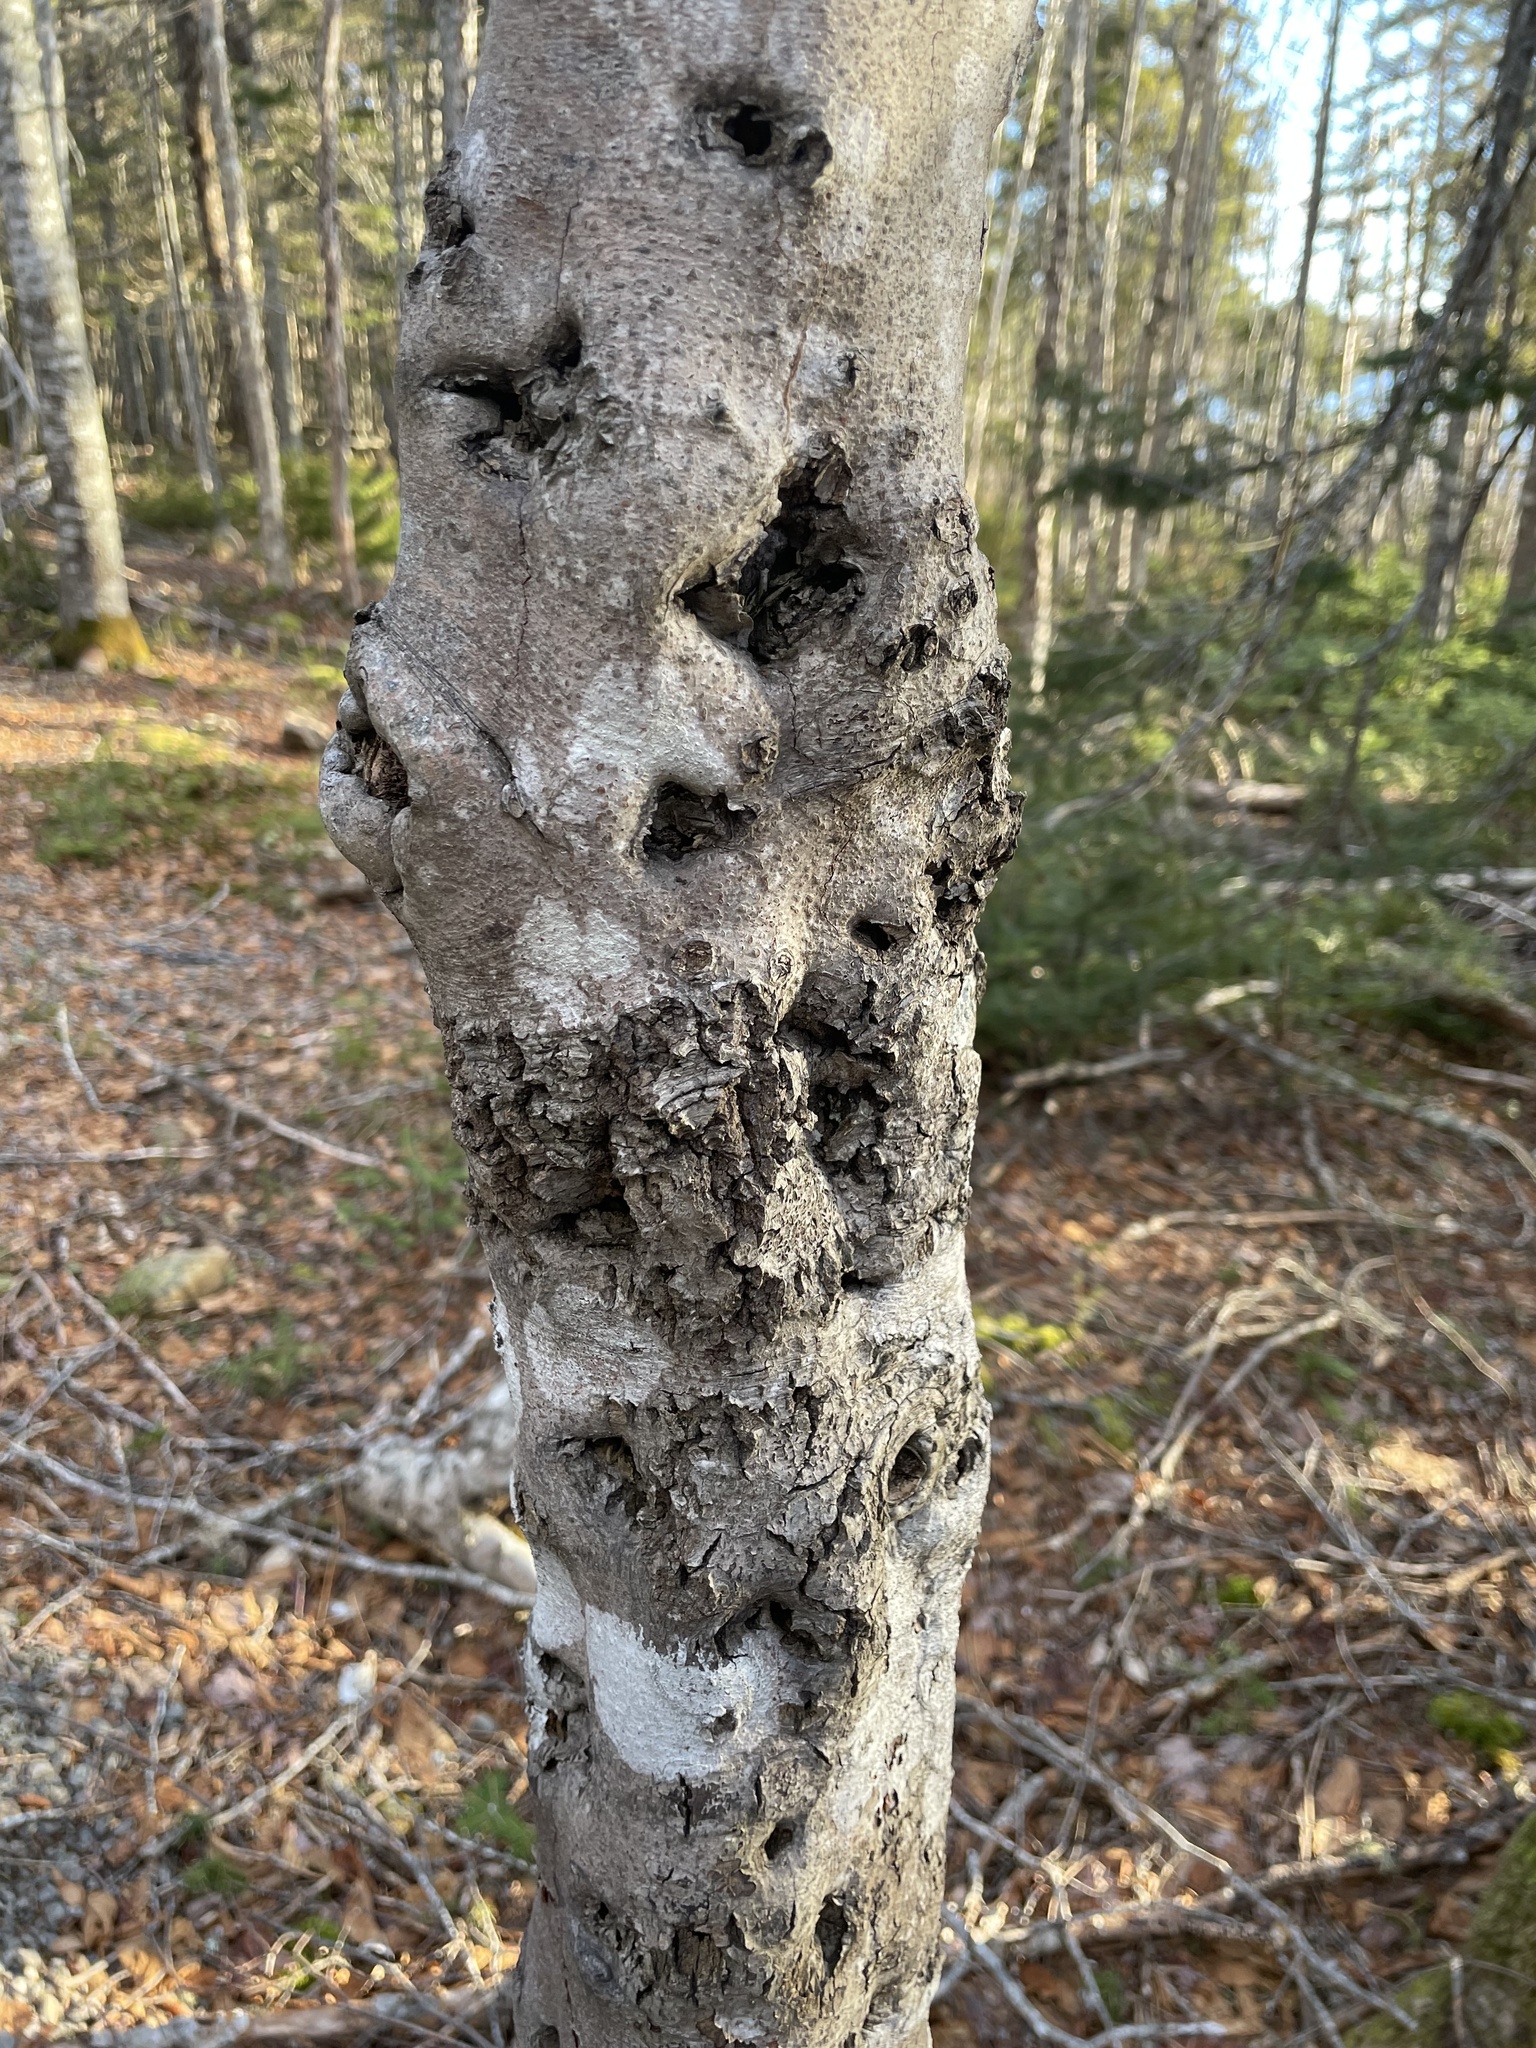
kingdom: Fungi
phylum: Ascomycota
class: Sordariomycetes
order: Hypocreales
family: Nectriaceae
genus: Neonectria
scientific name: Neonectria faginata
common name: Beech bark canker
